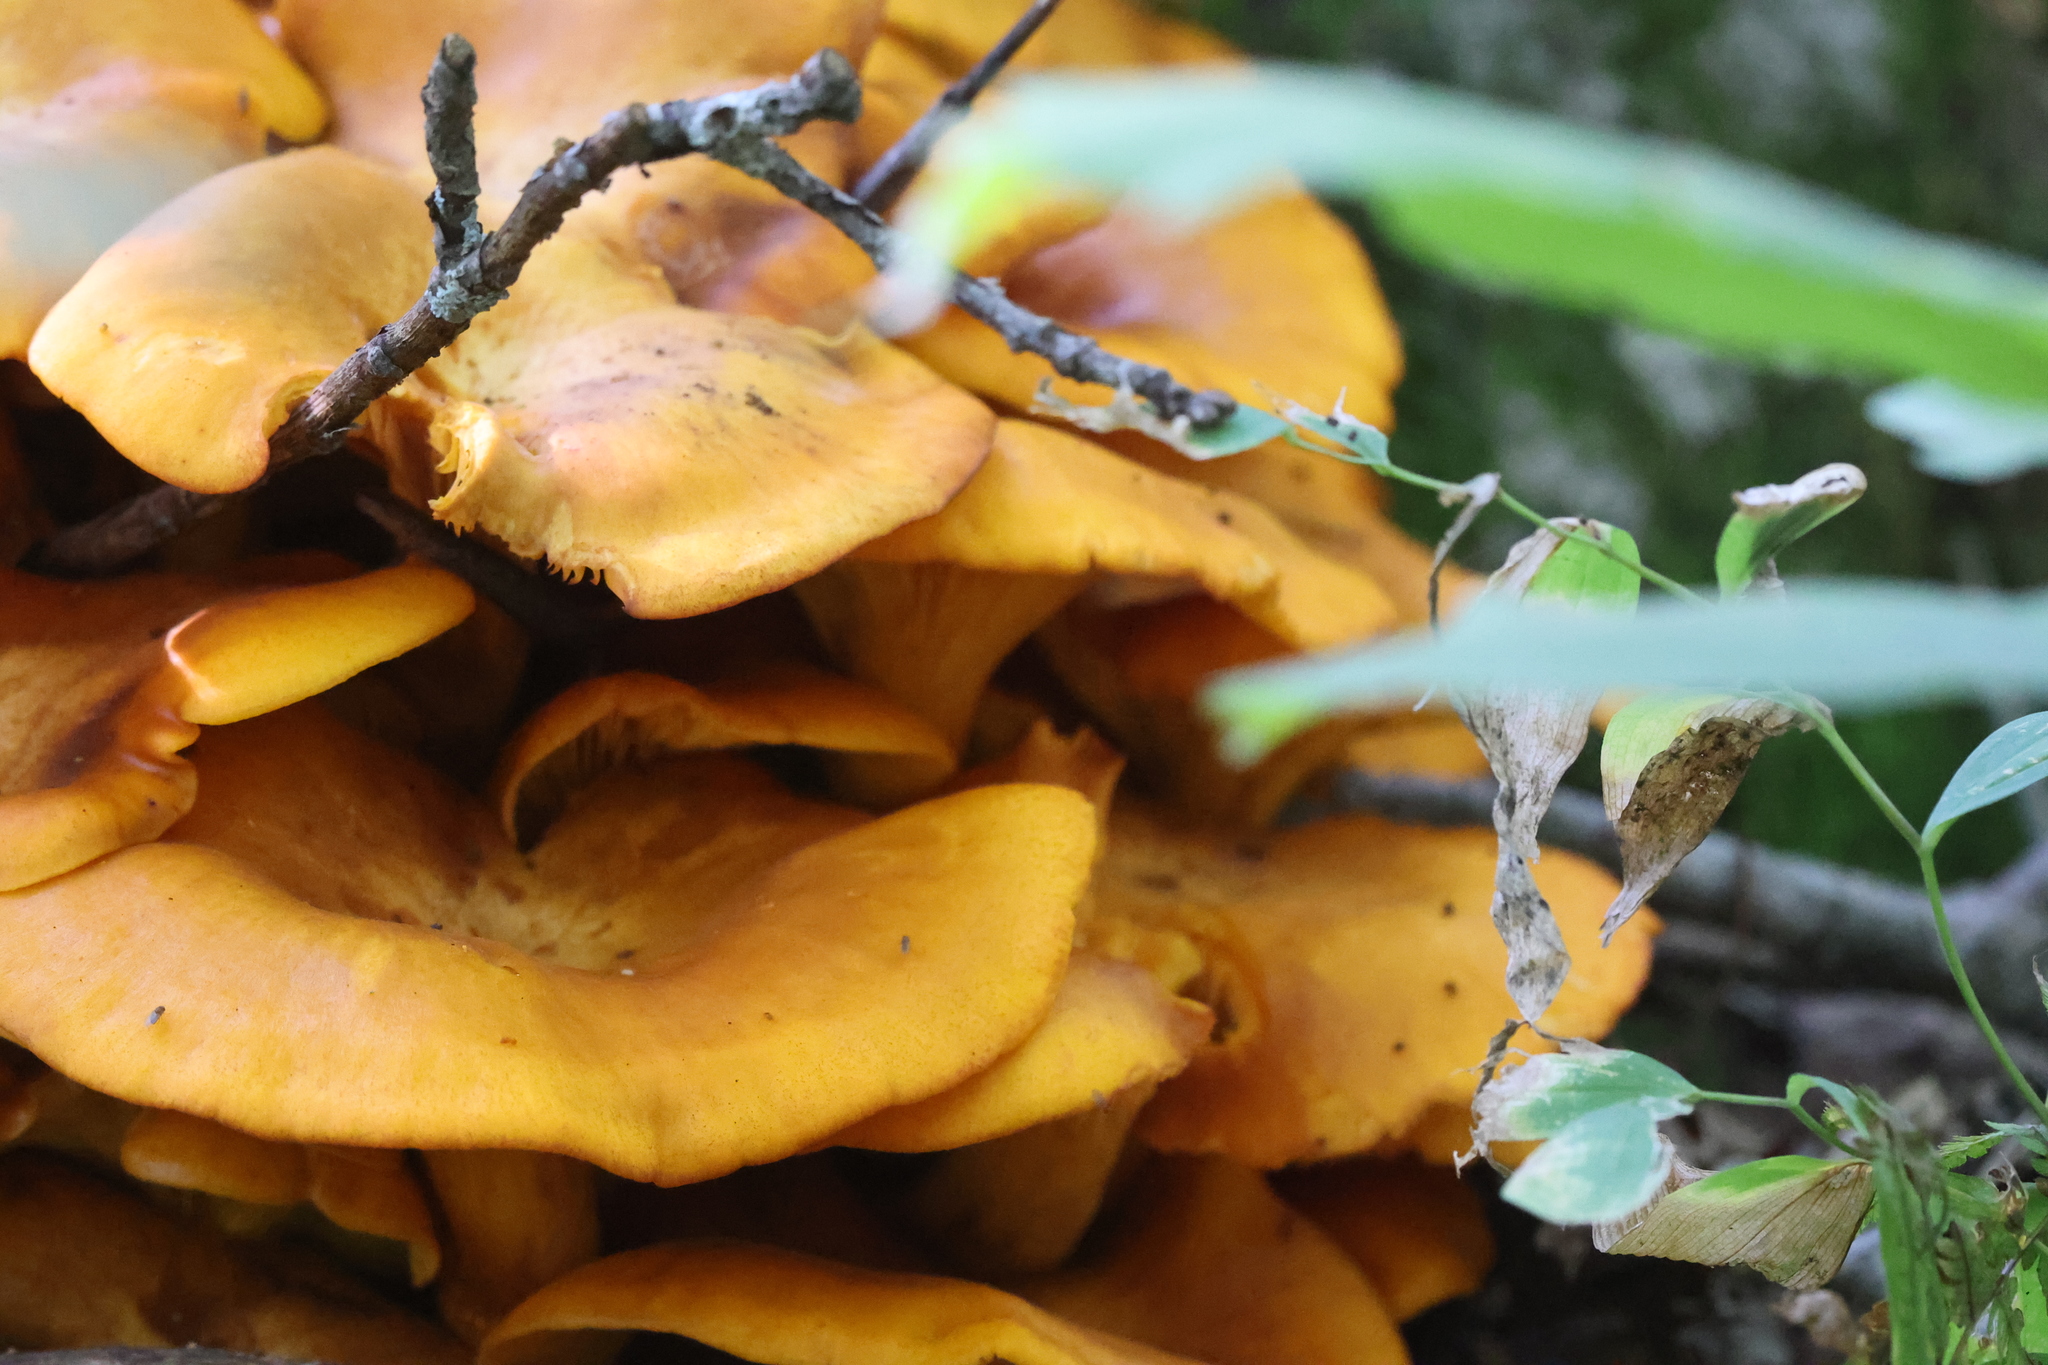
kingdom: Fungi
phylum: Basidiomycota
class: Agaricomycetes
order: Agaricales
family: Omphalotaceae
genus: Omphalotus
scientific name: Omphalotus illudens
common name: Jack o lantern
